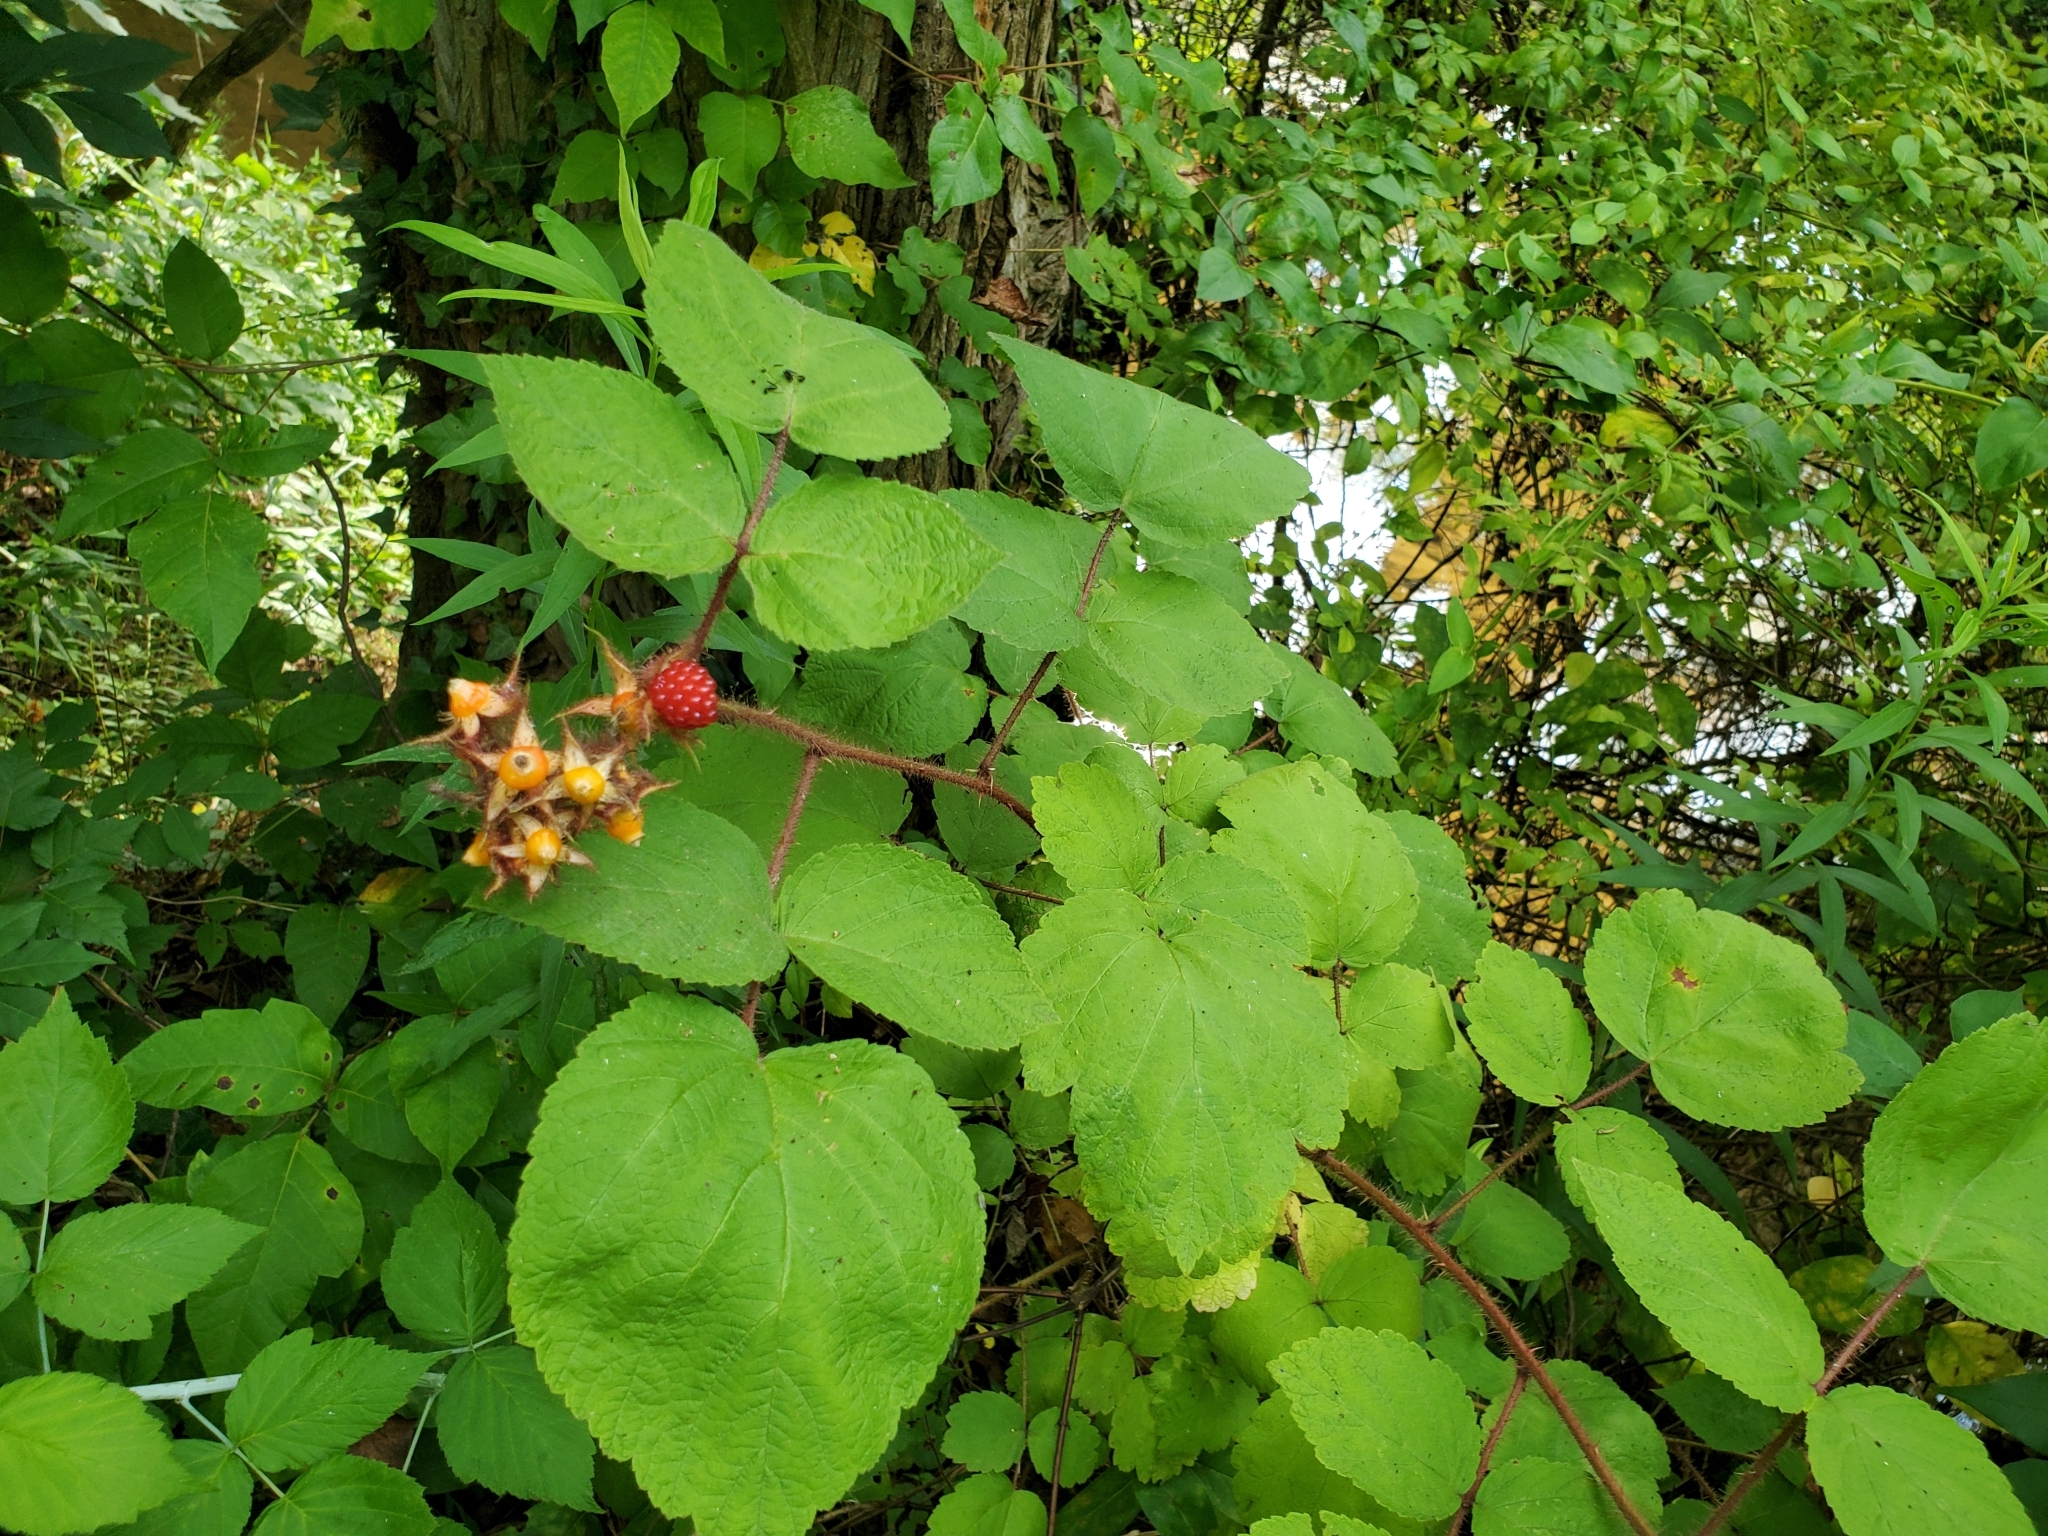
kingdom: Plantae
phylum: Tracheophyta
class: Magnoliopsida
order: Rosales
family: Rosaceae
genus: Rubus
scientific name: Rubus phoenicolasius
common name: Japanese wineberry
